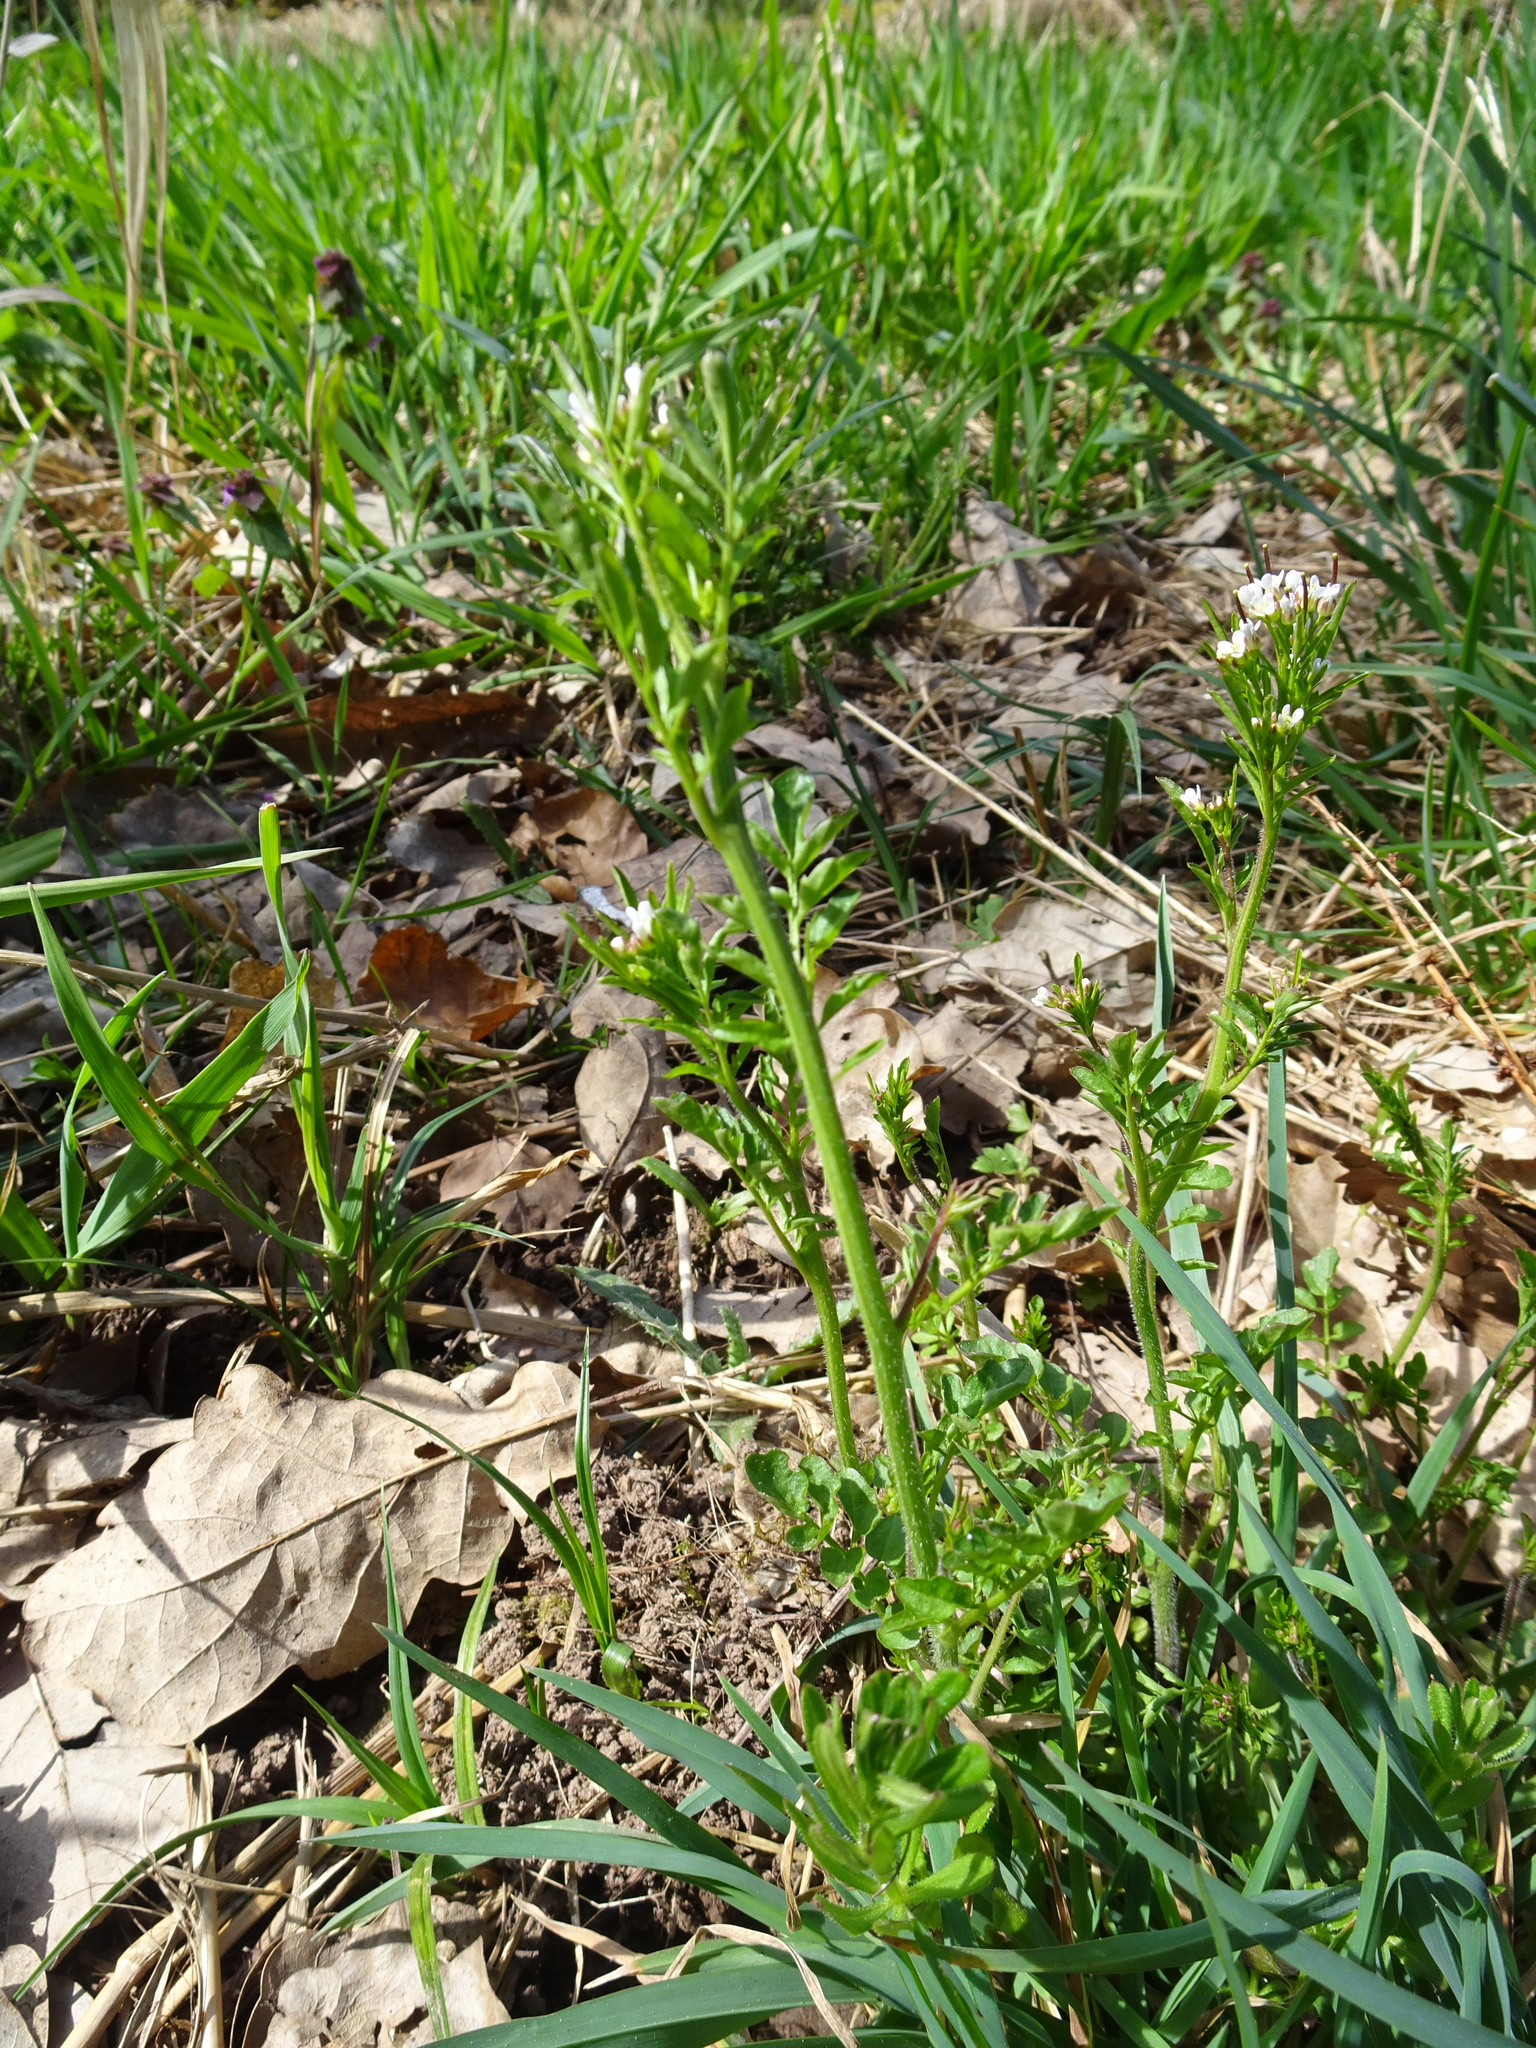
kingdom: Plantae
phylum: Tracheophyta
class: Magnoliopsida
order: Brassicales
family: Brassicaceae
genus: Cardamine
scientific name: Cardamine flexuosa
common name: Woodland bittercress
